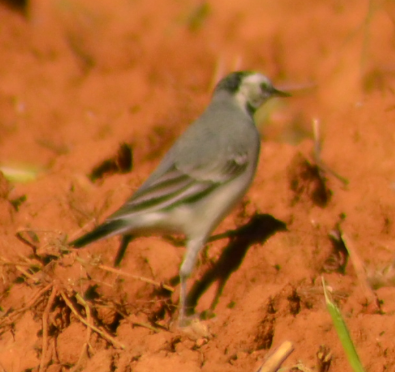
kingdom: Animalia
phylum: Chordata
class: Aves
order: Passeriformes
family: Motacillidae
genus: Motacilla
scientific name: Motacilla alba
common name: White wagtail
